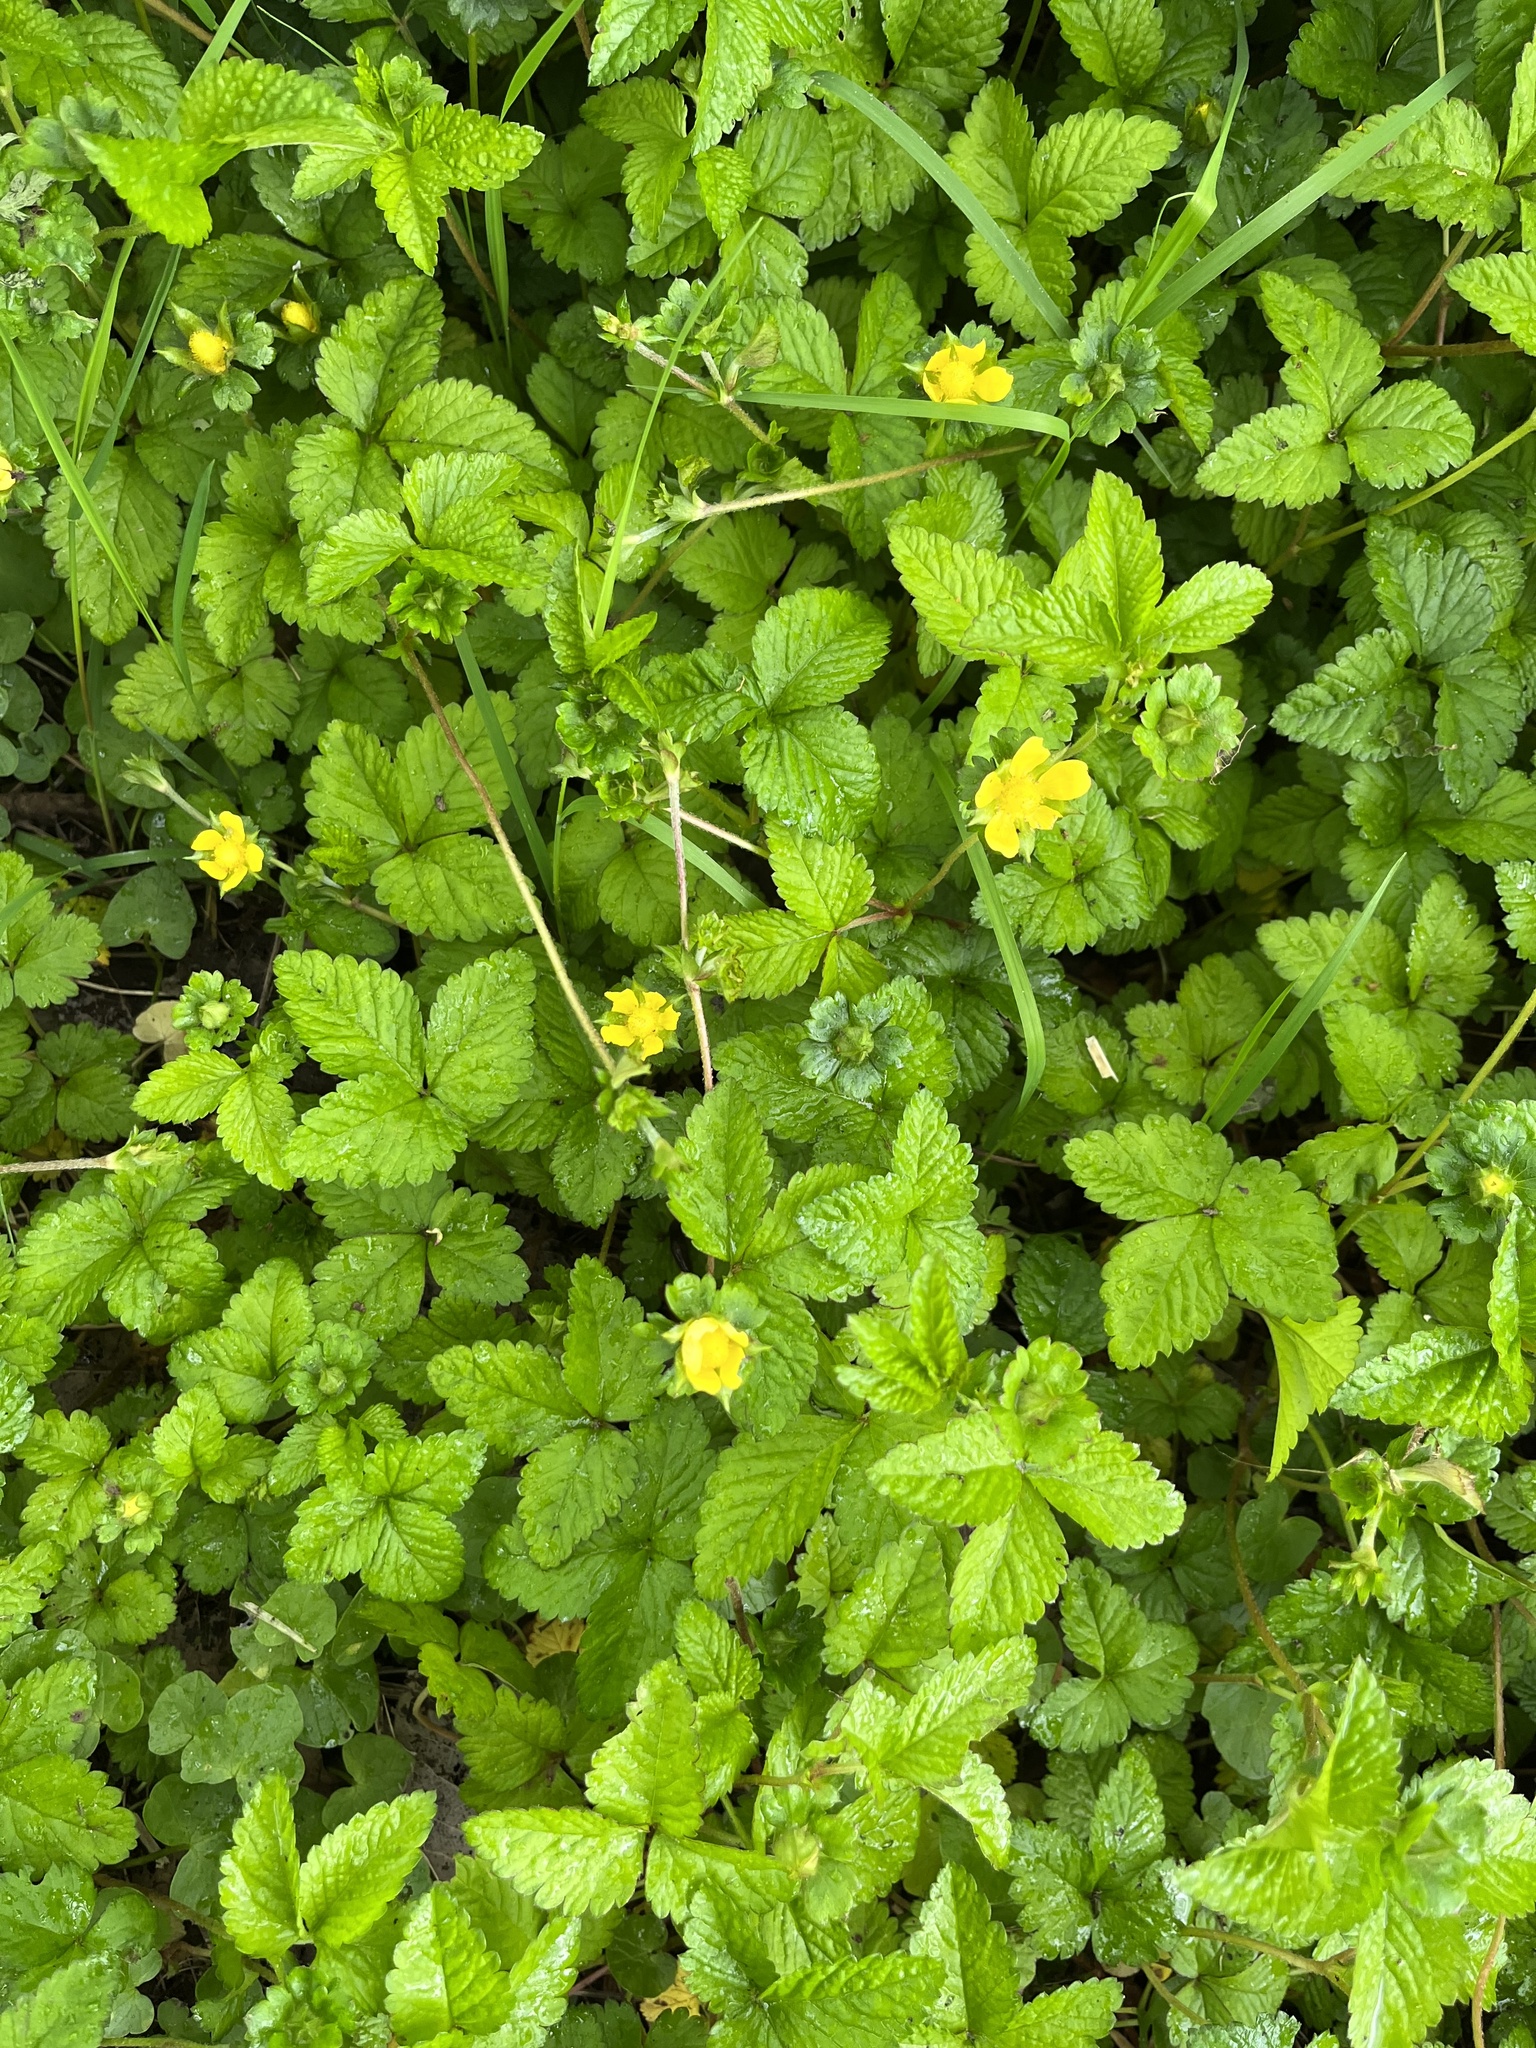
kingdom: Plantae
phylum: Tracheophyta
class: Magnoliopsida
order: Rosales
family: Rosaceae
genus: Potentilla
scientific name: Potentilla indica
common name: Yellow-flowered strawberry
